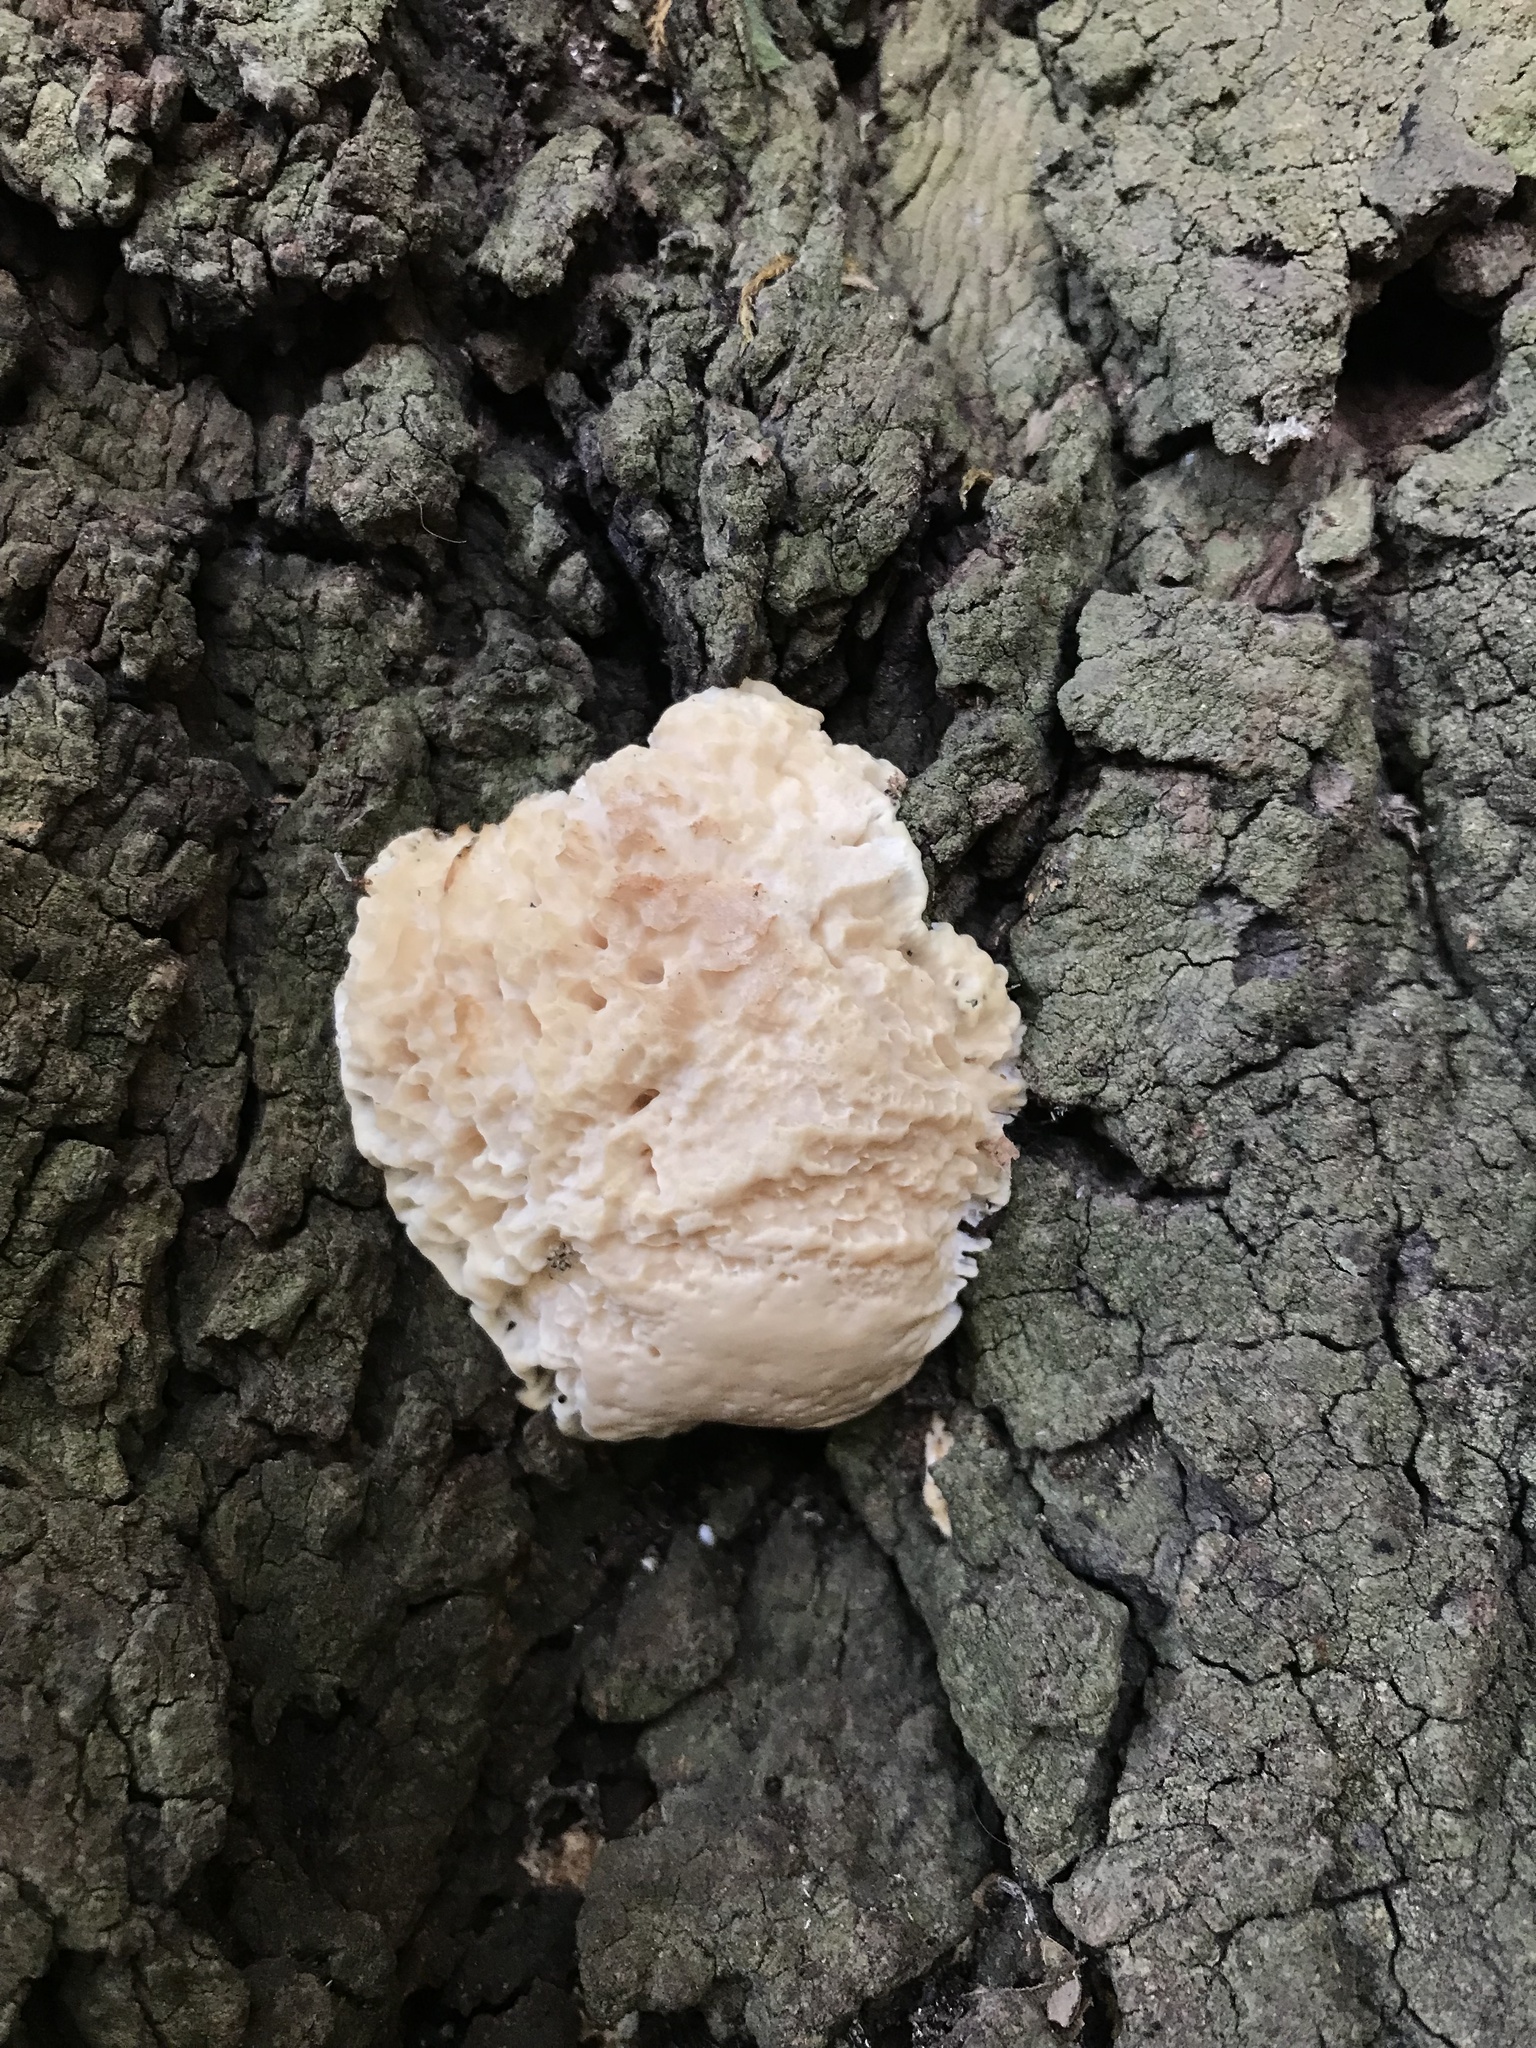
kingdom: Fungi
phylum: Basidiomycota
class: Agaricomycetes
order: Polyporales
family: Irpicaceae
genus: Irpex
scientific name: Irpex rosettiformis
